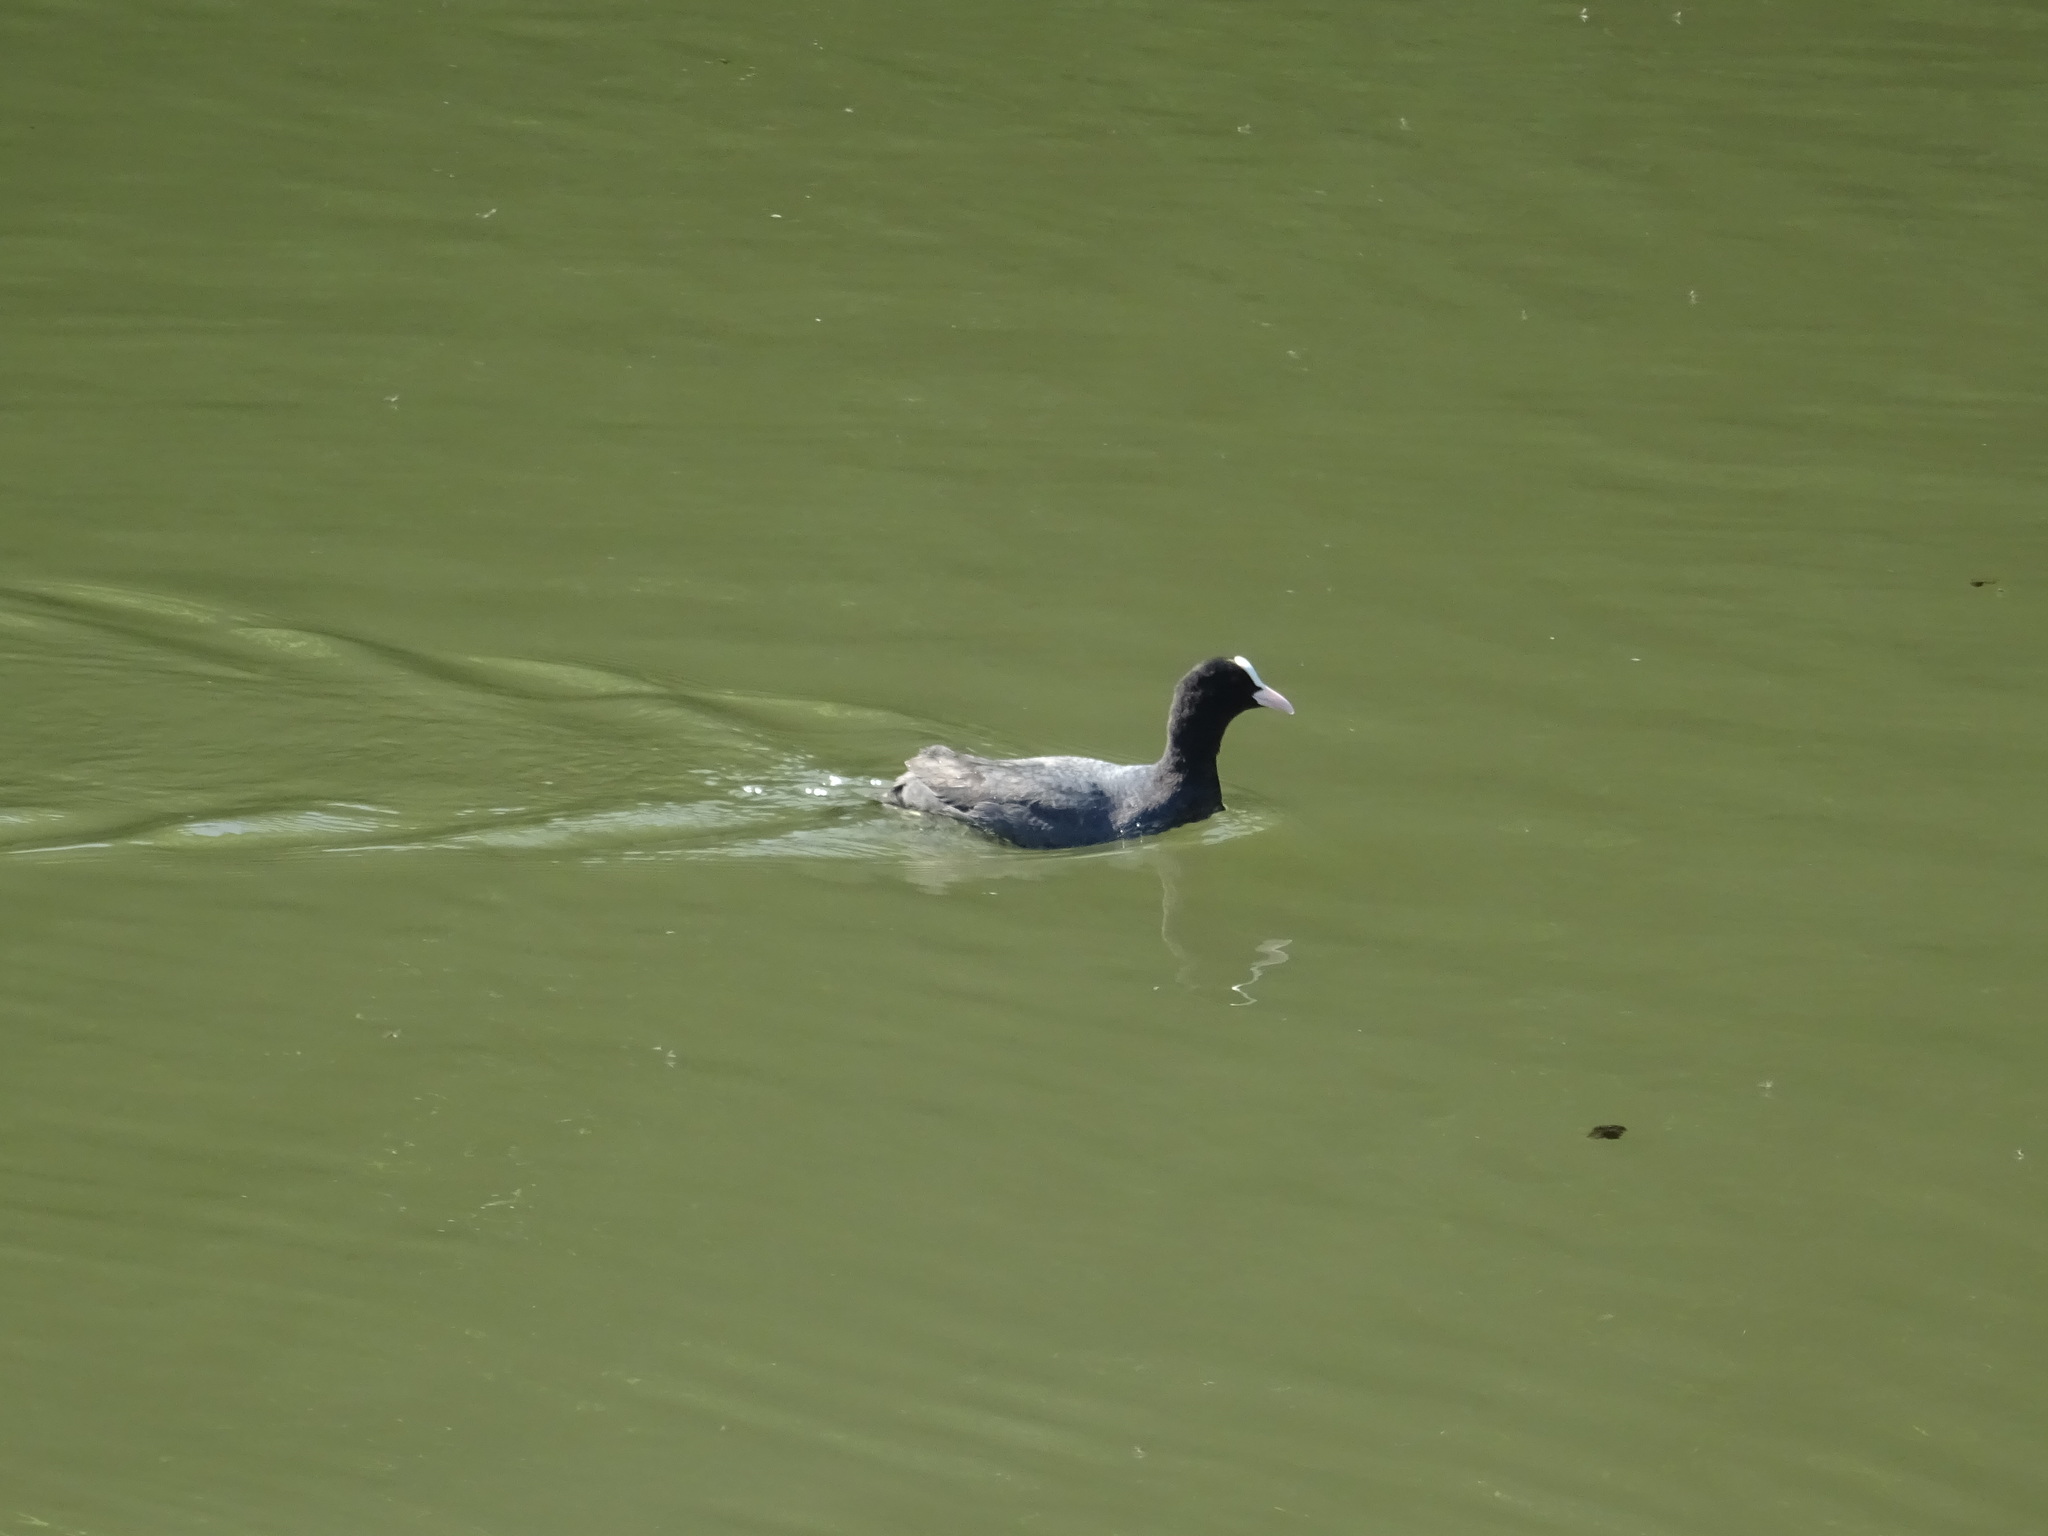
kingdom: Animalia
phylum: Chordata
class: Aves
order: Gruiformes
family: Rallidae
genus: Fulica
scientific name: Fulica atra
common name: Eurasian coot
